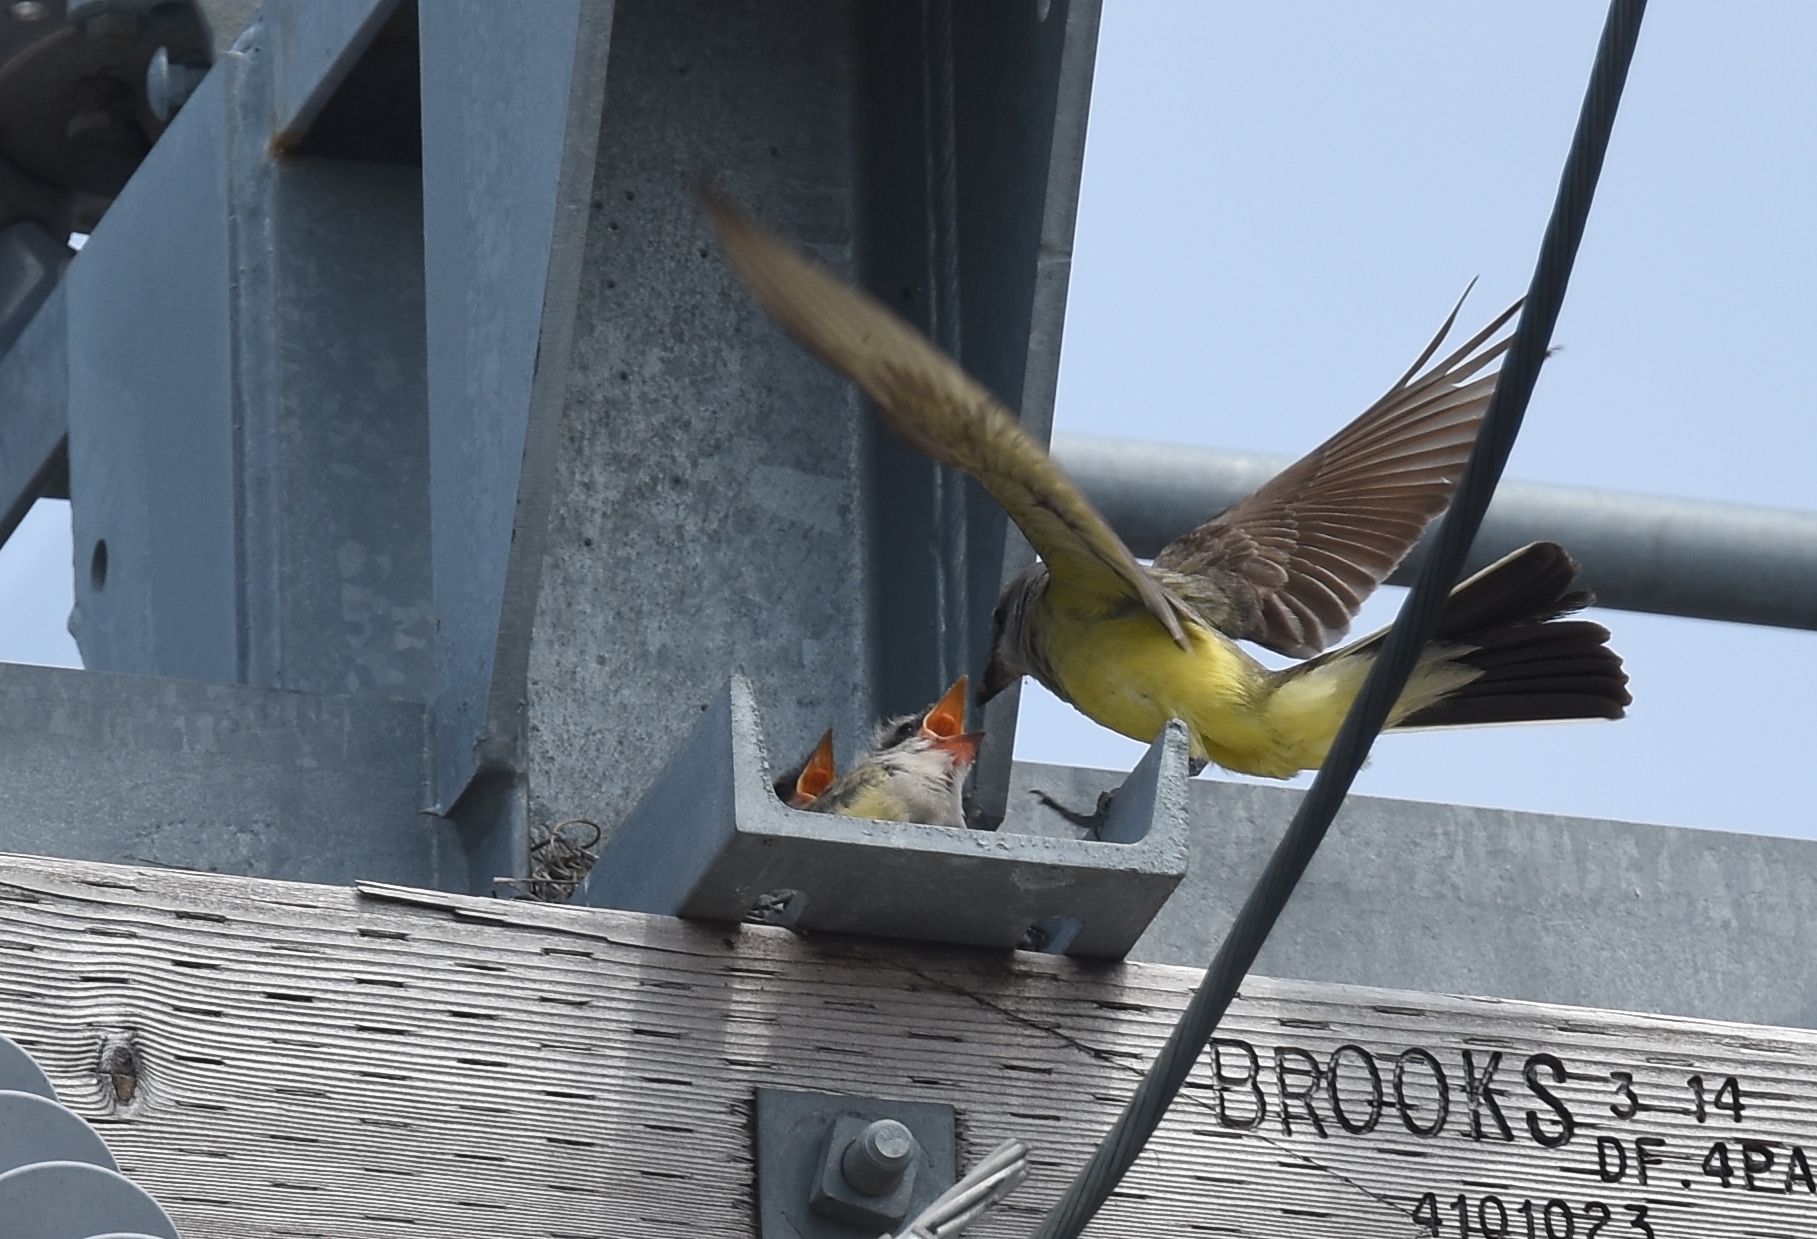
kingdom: Animalia
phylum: Chordata
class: Aves
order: Passeriformes
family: Tyrannidae
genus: Tyrannus
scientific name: Tyrannus verticalis
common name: Western kingbird
